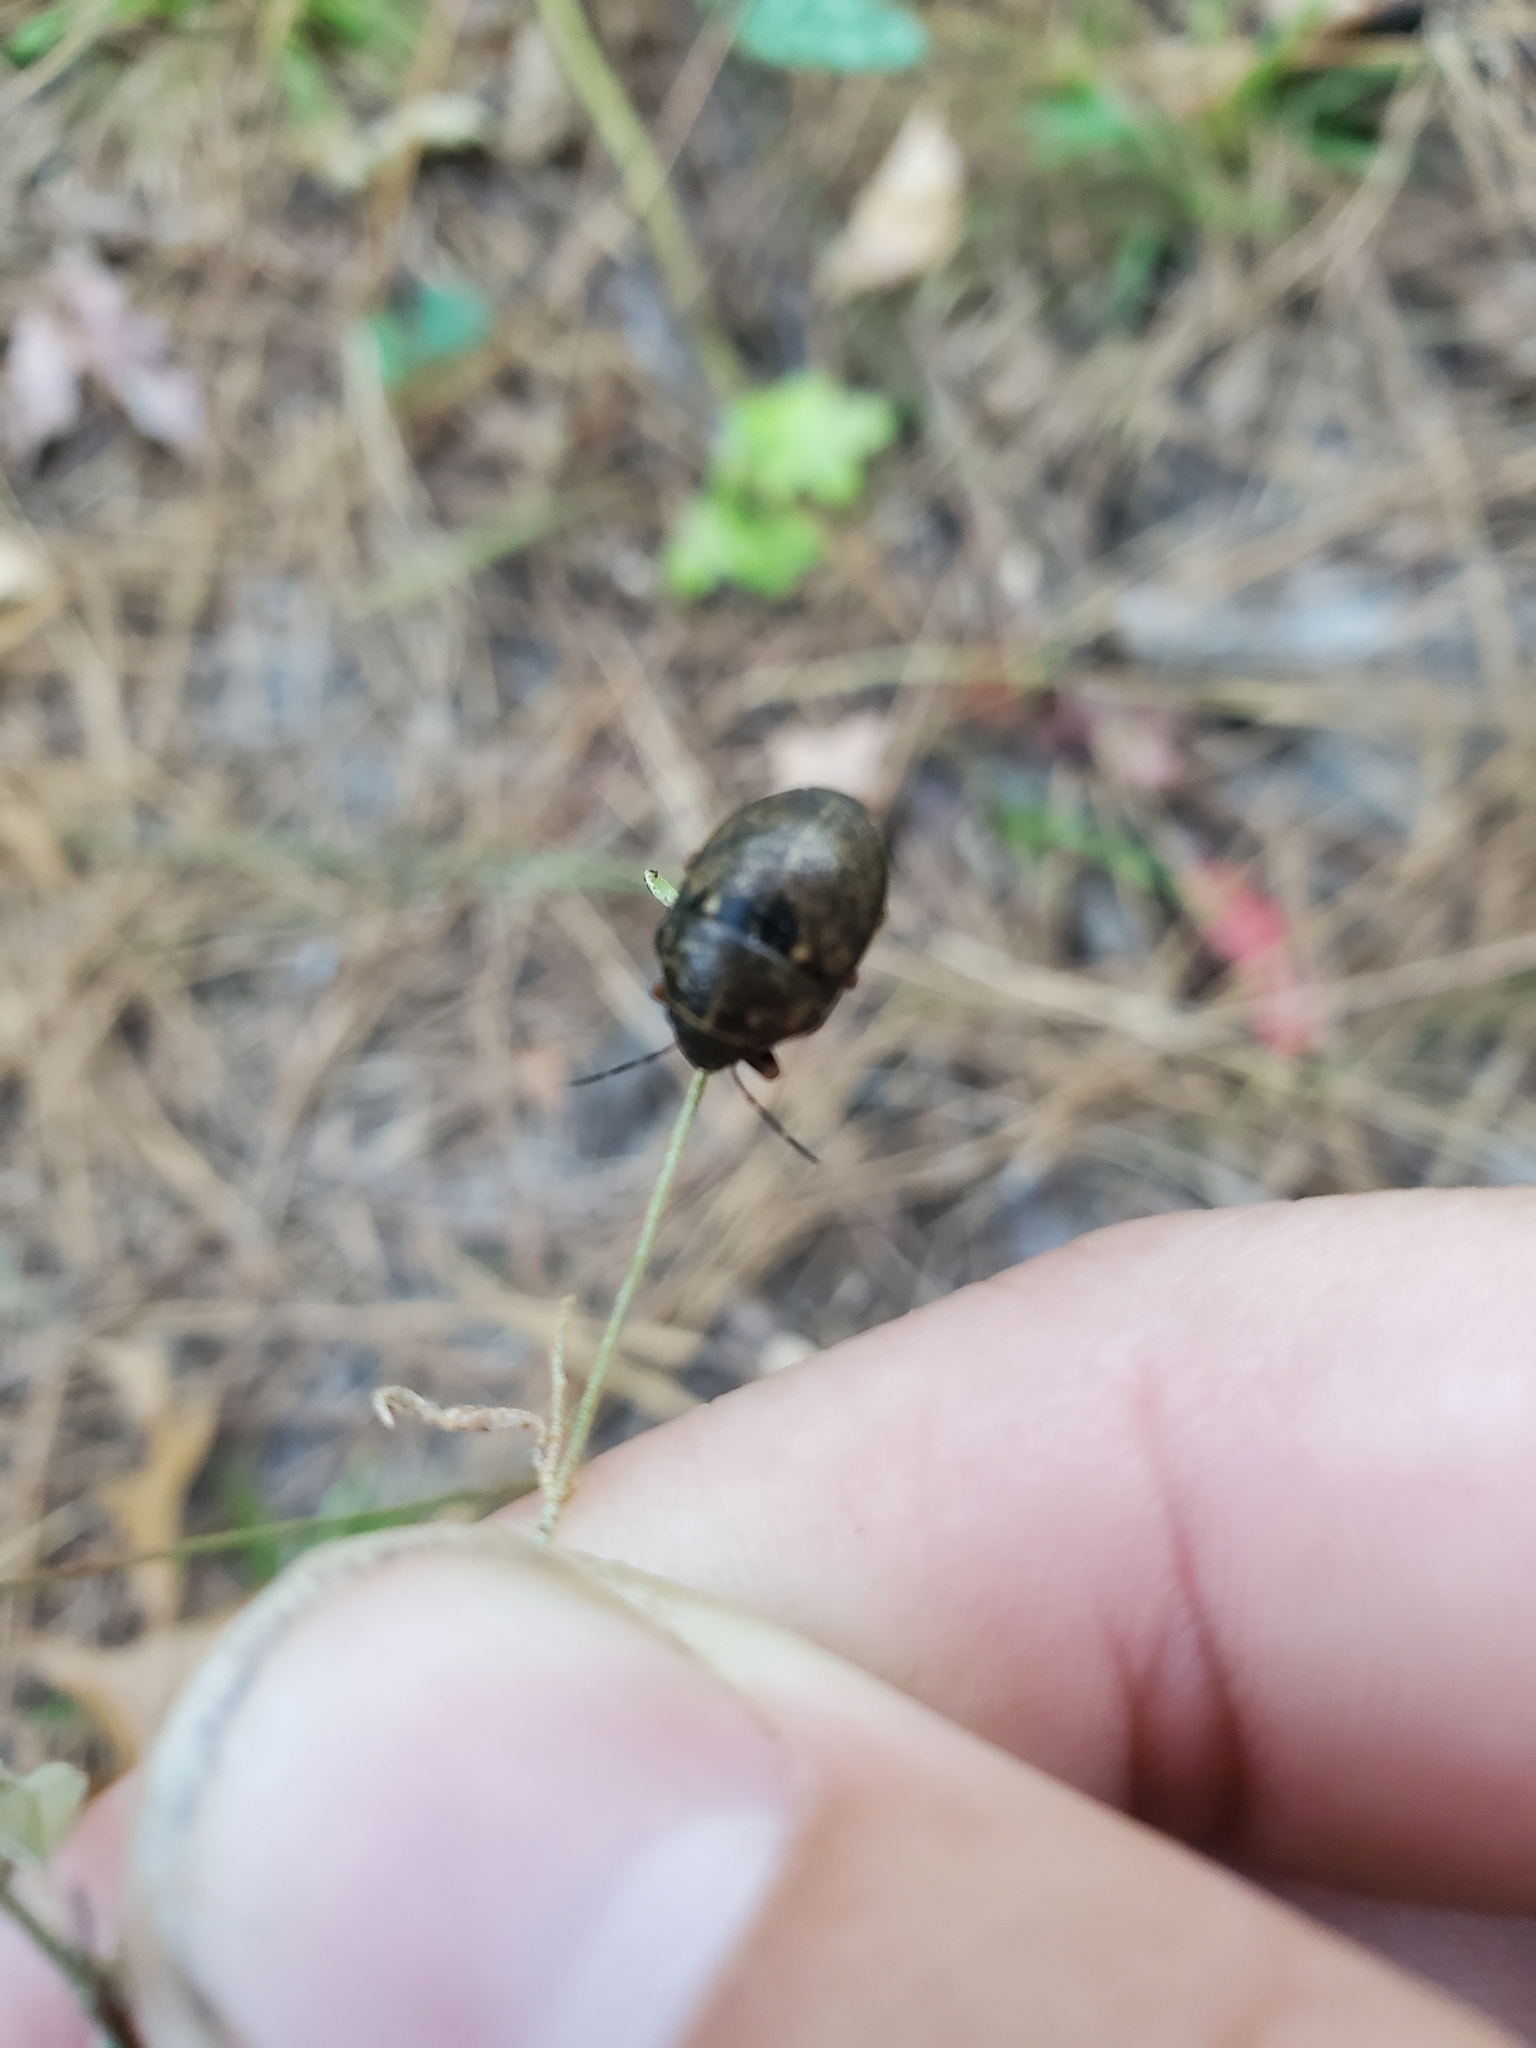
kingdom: Animalia
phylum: Arthropoda
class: Insecta
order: Hemiptera
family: Scutelleridae
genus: Orsilochides
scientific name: Orsilochides guttata
